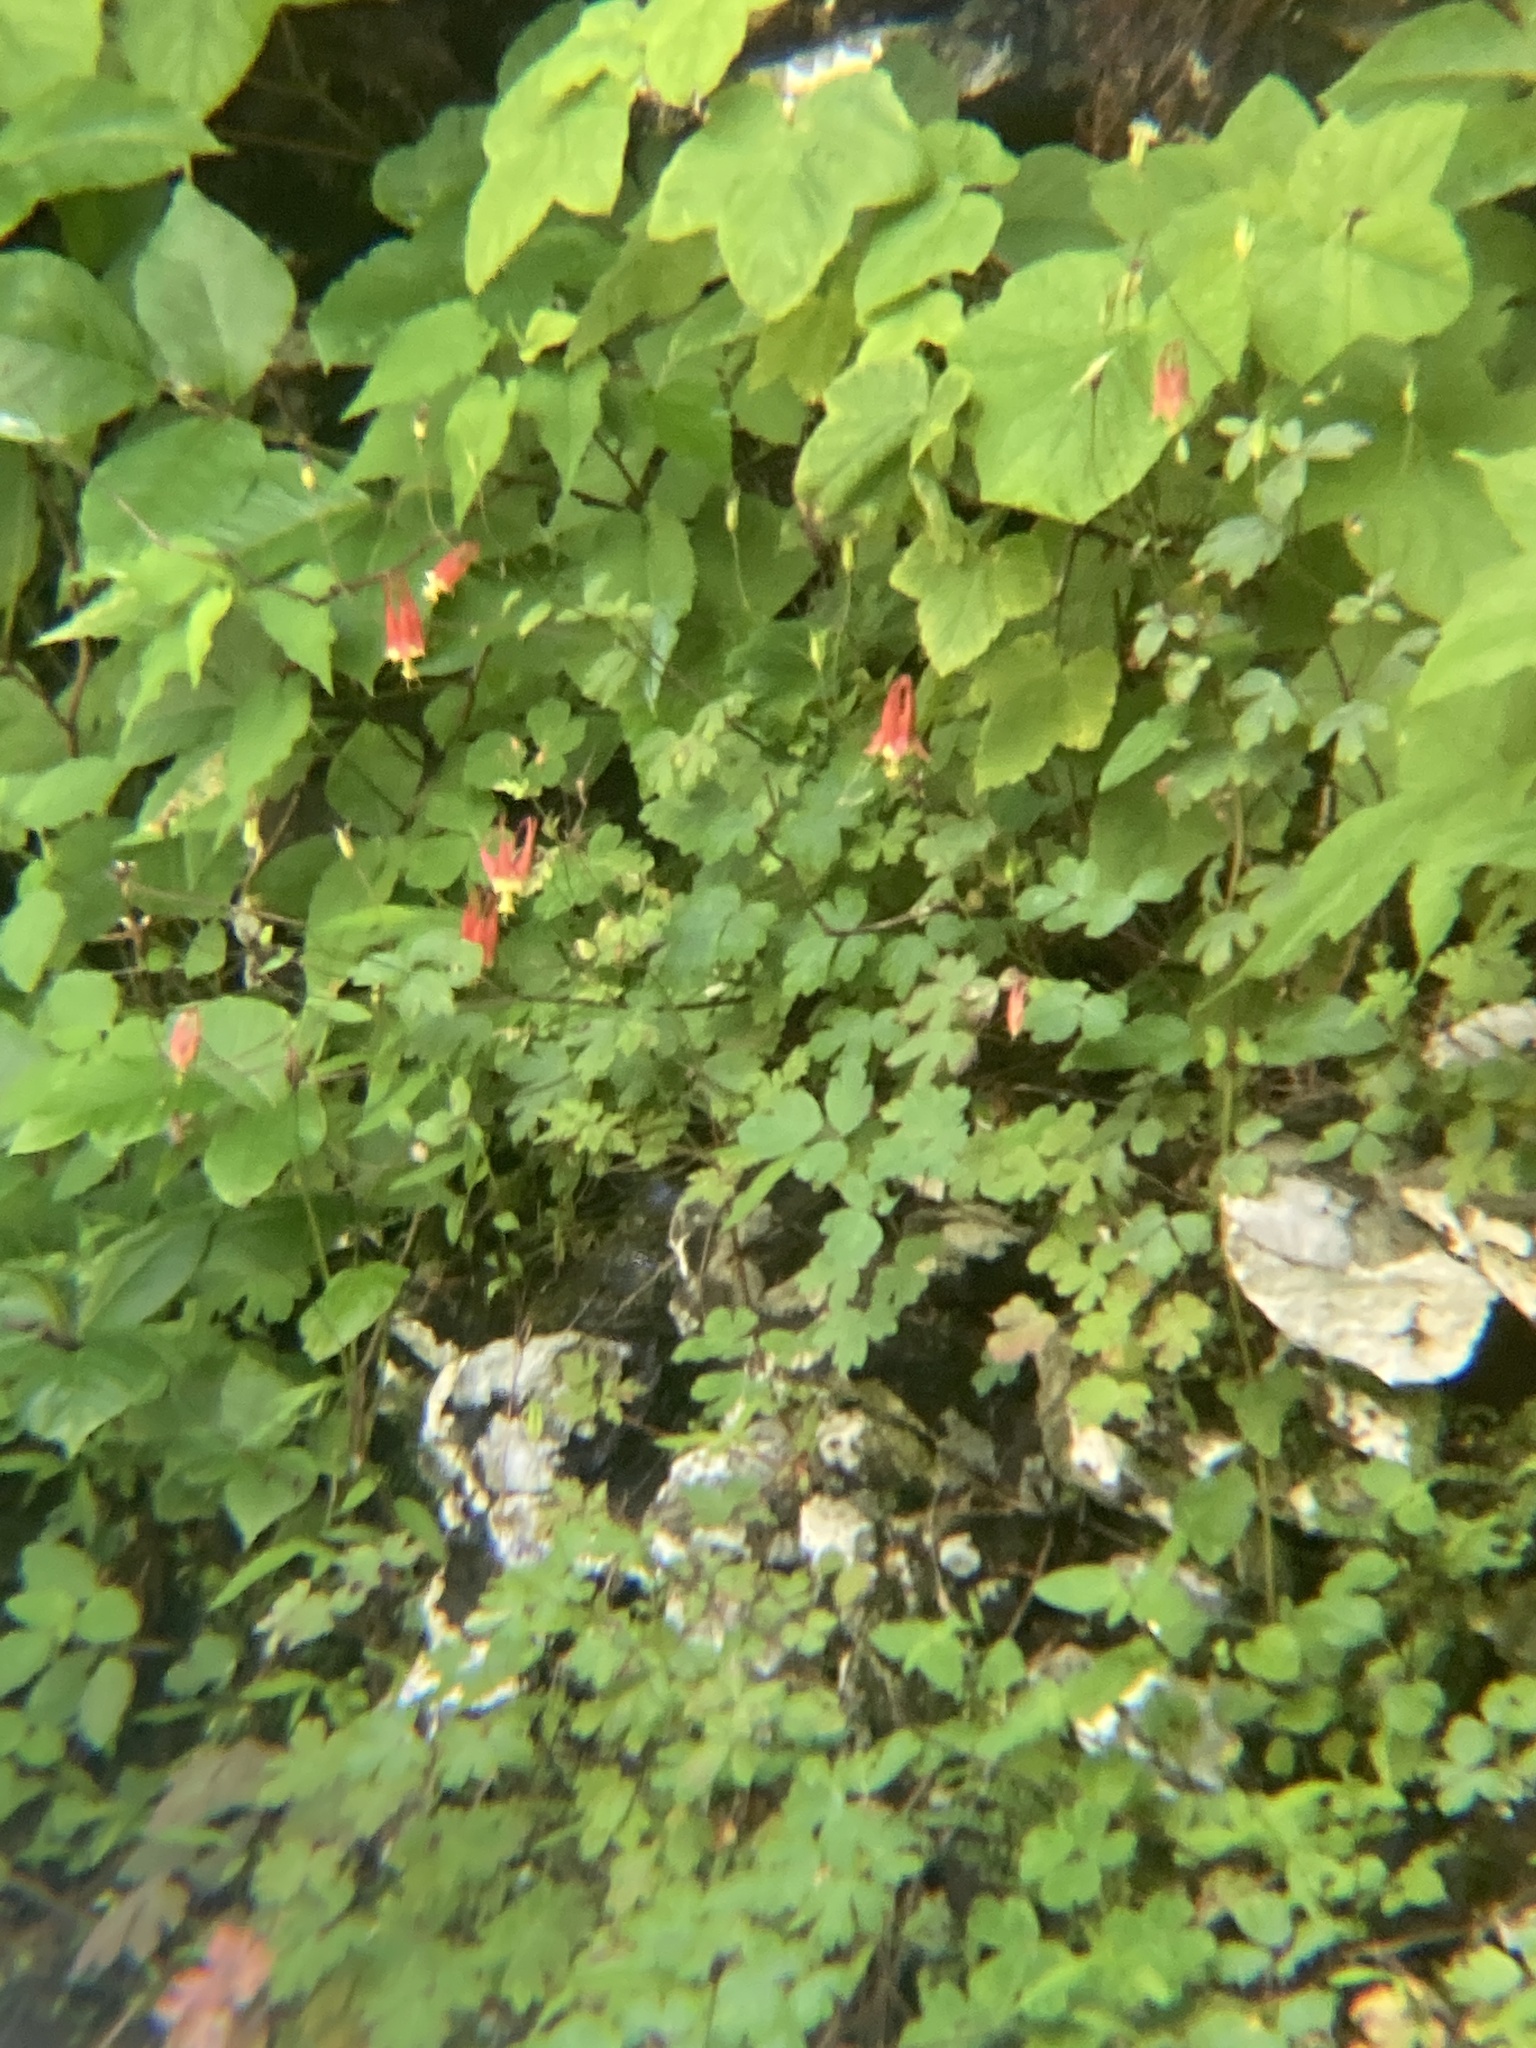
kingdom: Plantae
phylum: Tracheophyta
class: Magnoliopsida
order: Ranunculales
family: Ranunculaceae
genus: Aquilegia
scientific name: Aquilegia canadensis
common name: American columbine
